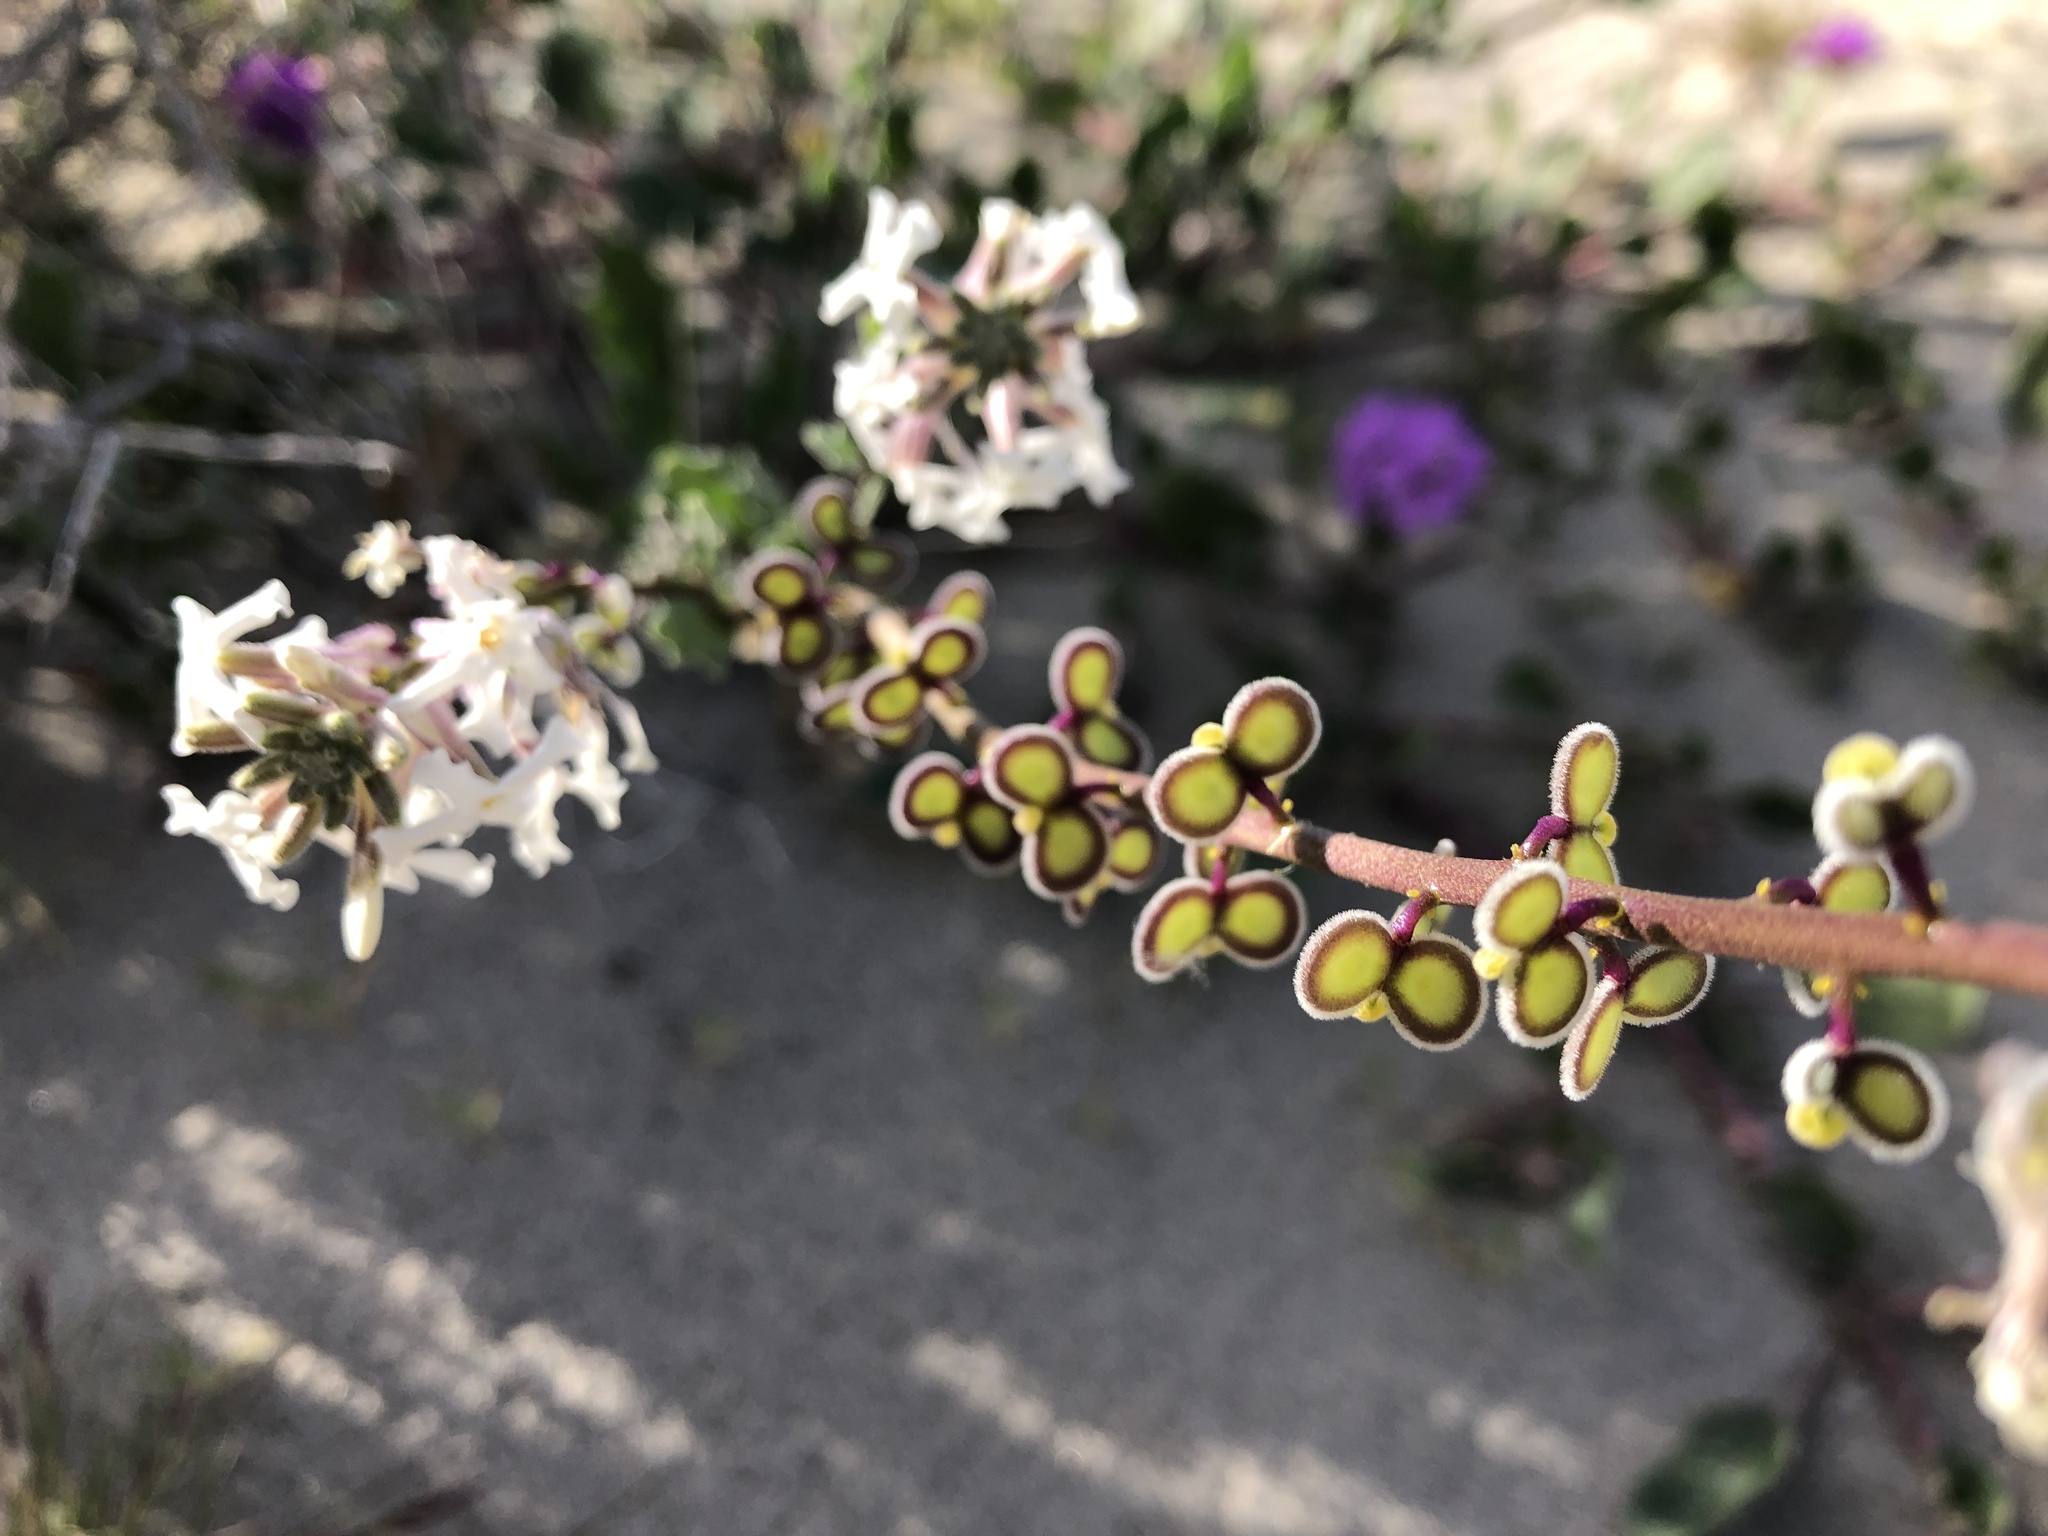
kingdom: Plantae
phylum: Tracheophyta
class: Magnoliopsida
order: Brassicales
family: Brassicaceae
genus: Dithyrea
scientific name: Dithyrea californica
